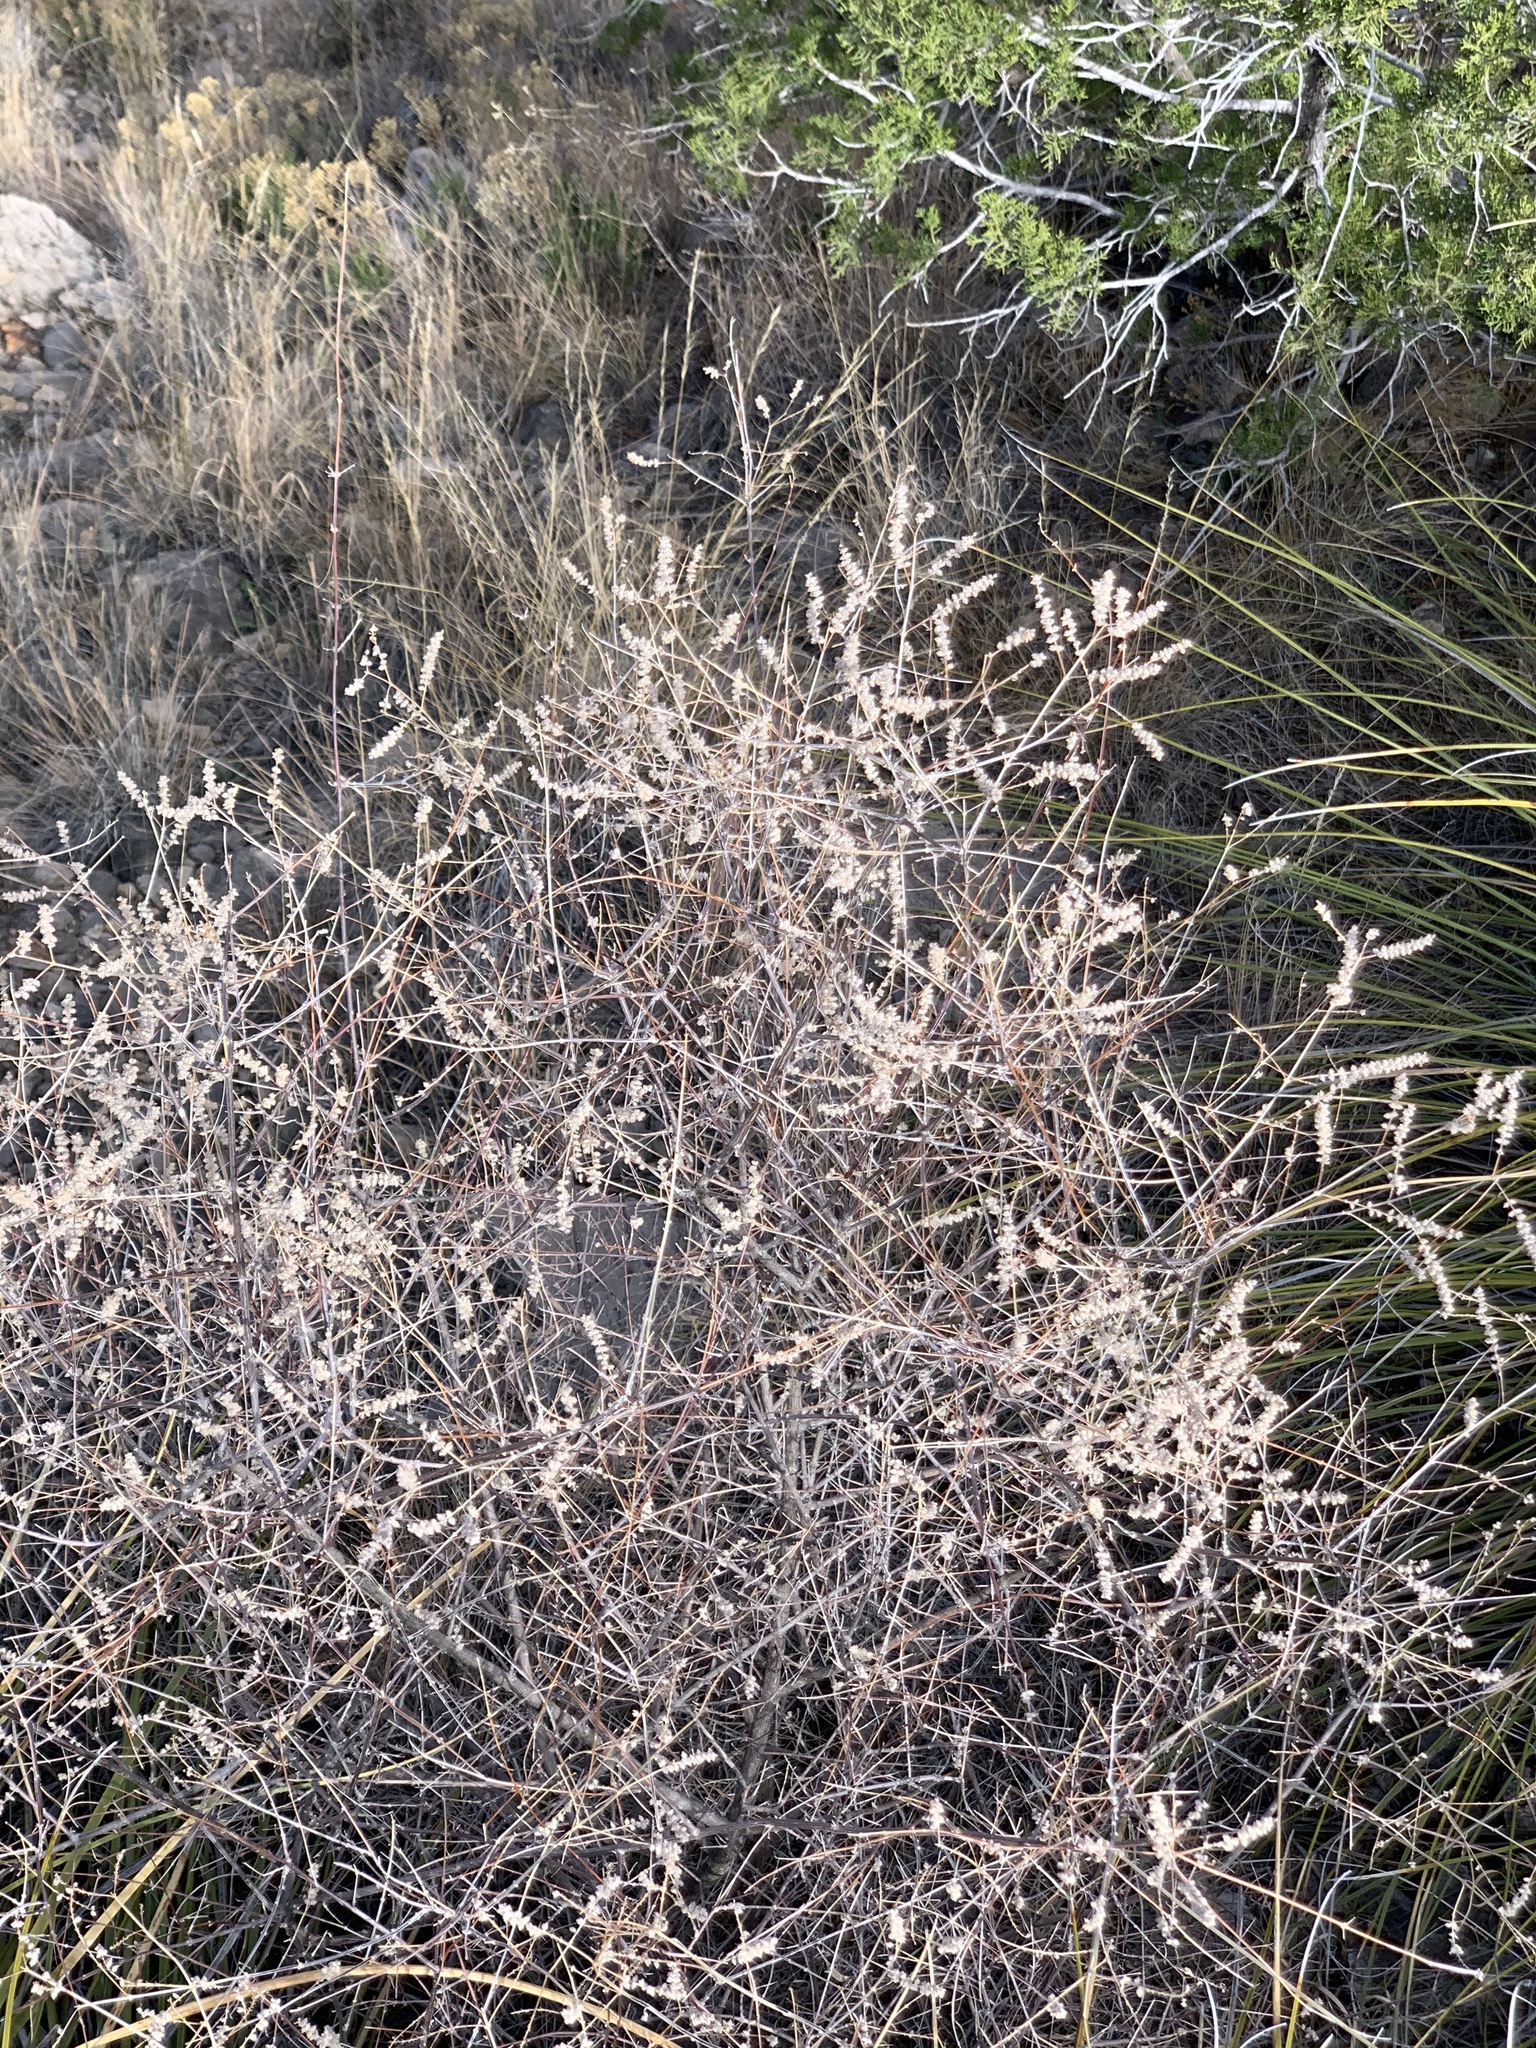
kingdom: Plantae
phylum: Tracheophyta
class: Magnoliopsida
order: Lamiales
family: Verbenaceae
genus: Aloysia
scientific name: Aloysia wrightii
